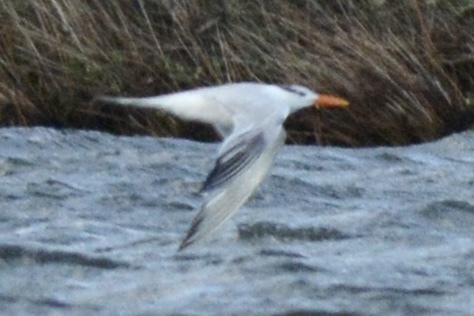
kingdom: Animalia
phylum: Chordata
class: Aves
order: Charadriiformes
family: Laridae
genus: Thalasseus
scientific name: Thalasseus maximus
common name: Royal tern
